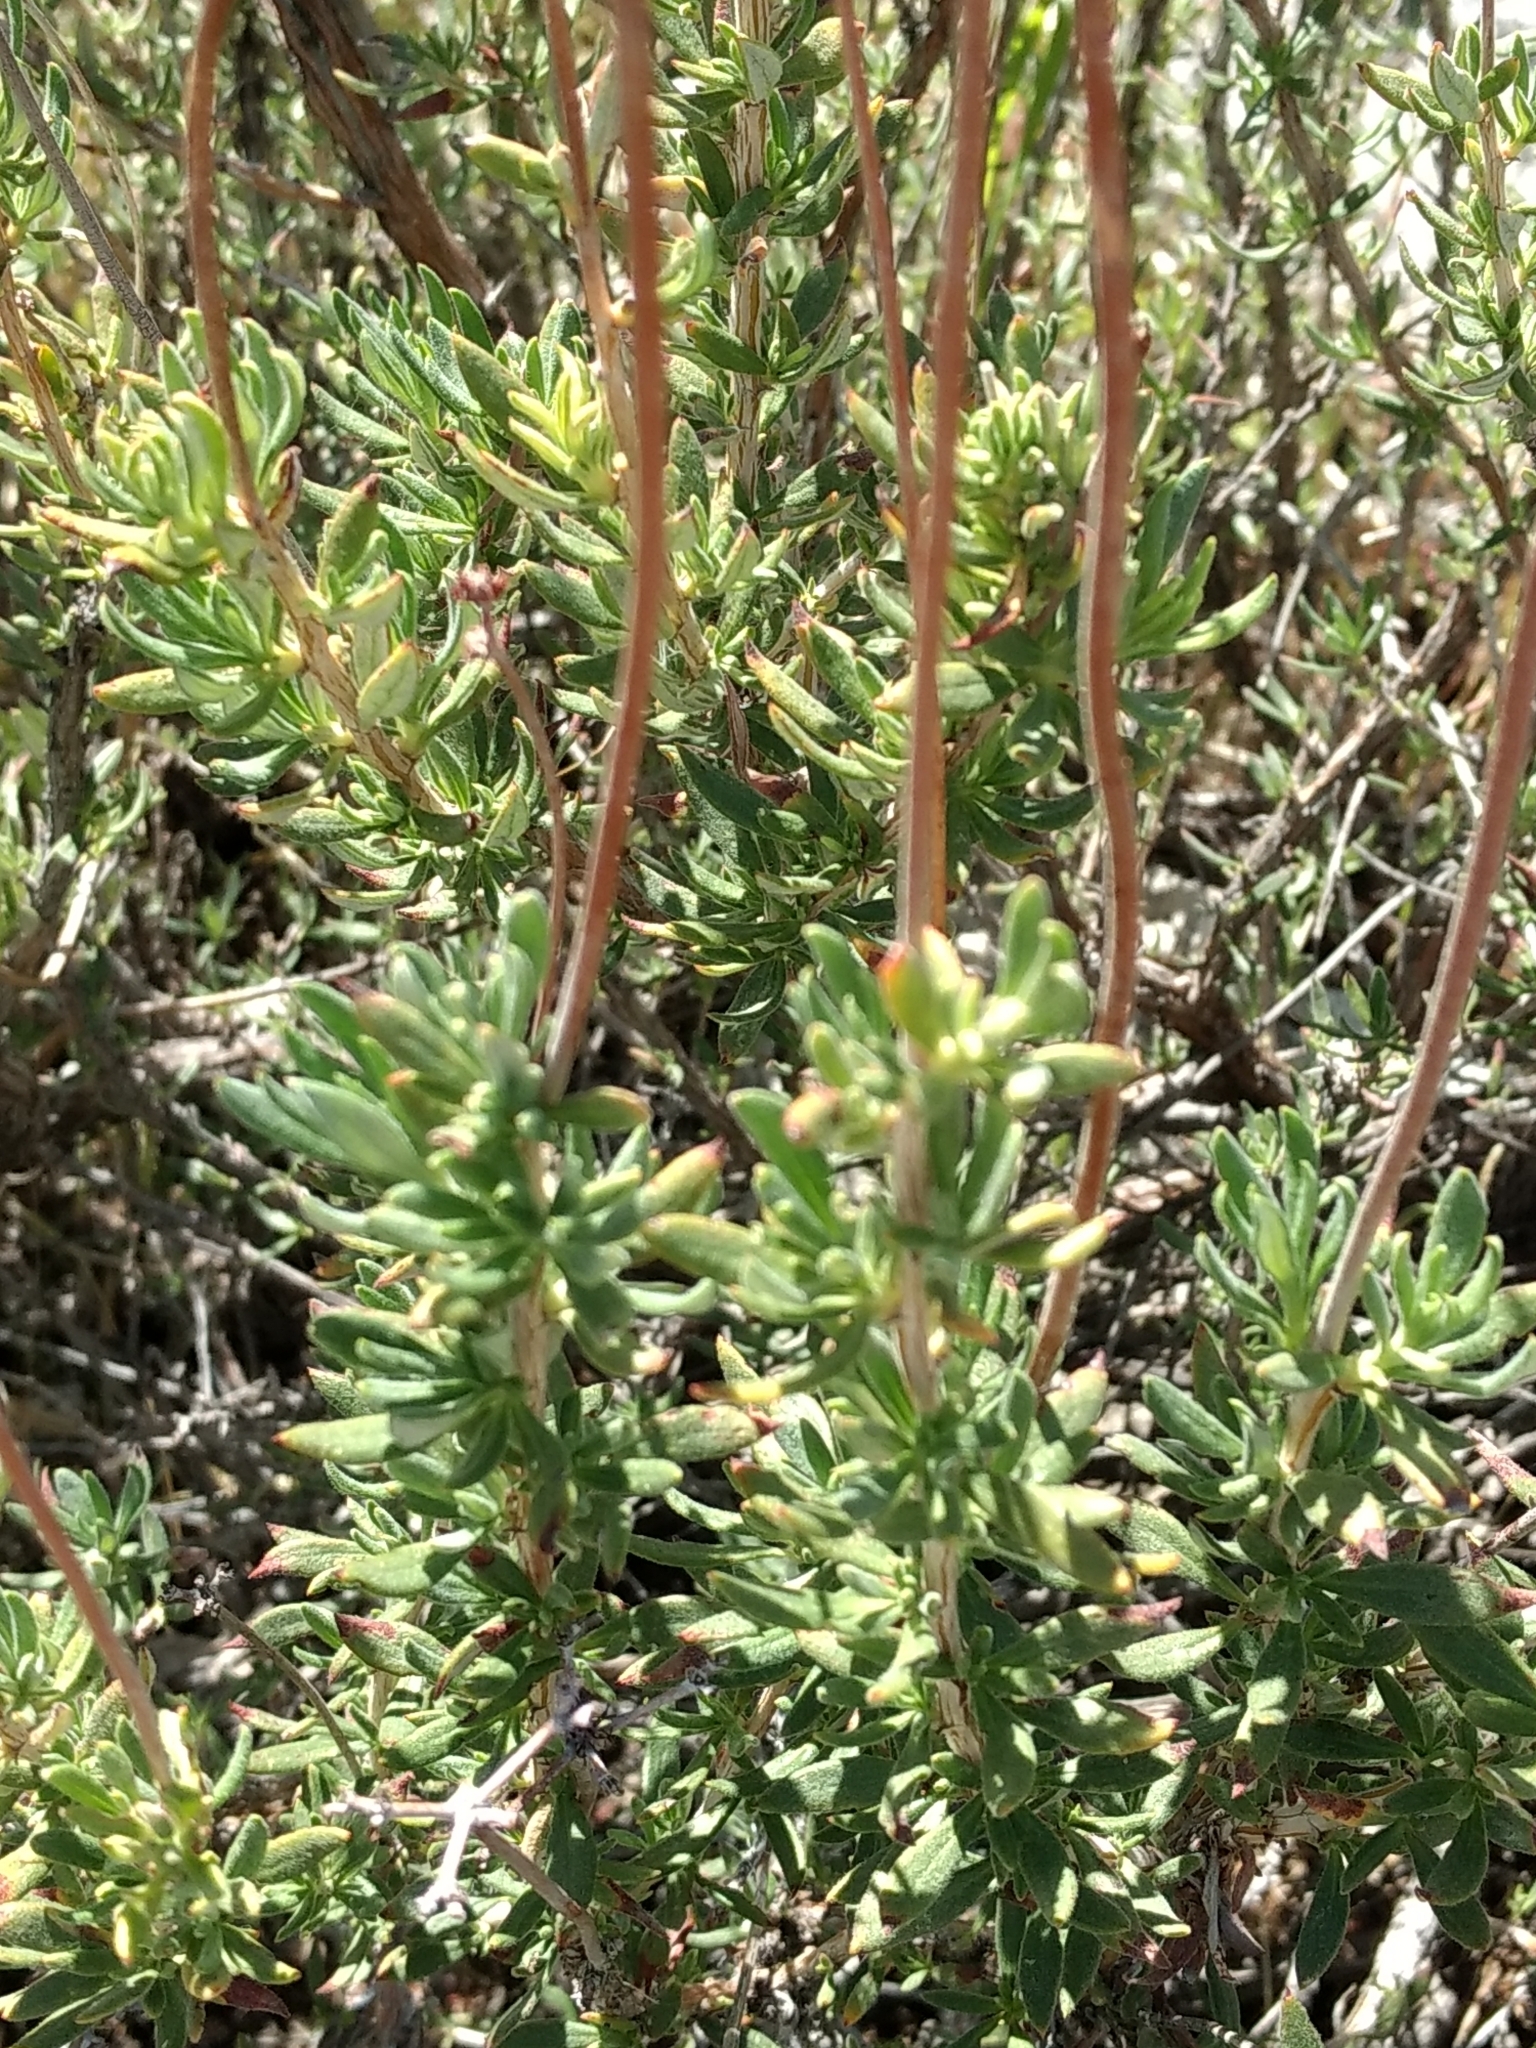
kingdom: Plantae
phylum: Tracheophyta
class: Magnoliopsida
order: Caryophyllales
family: Polygonaceae
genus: Eriogonum
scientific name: Eriogonum fasciculatum
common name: California wild buckwheat
